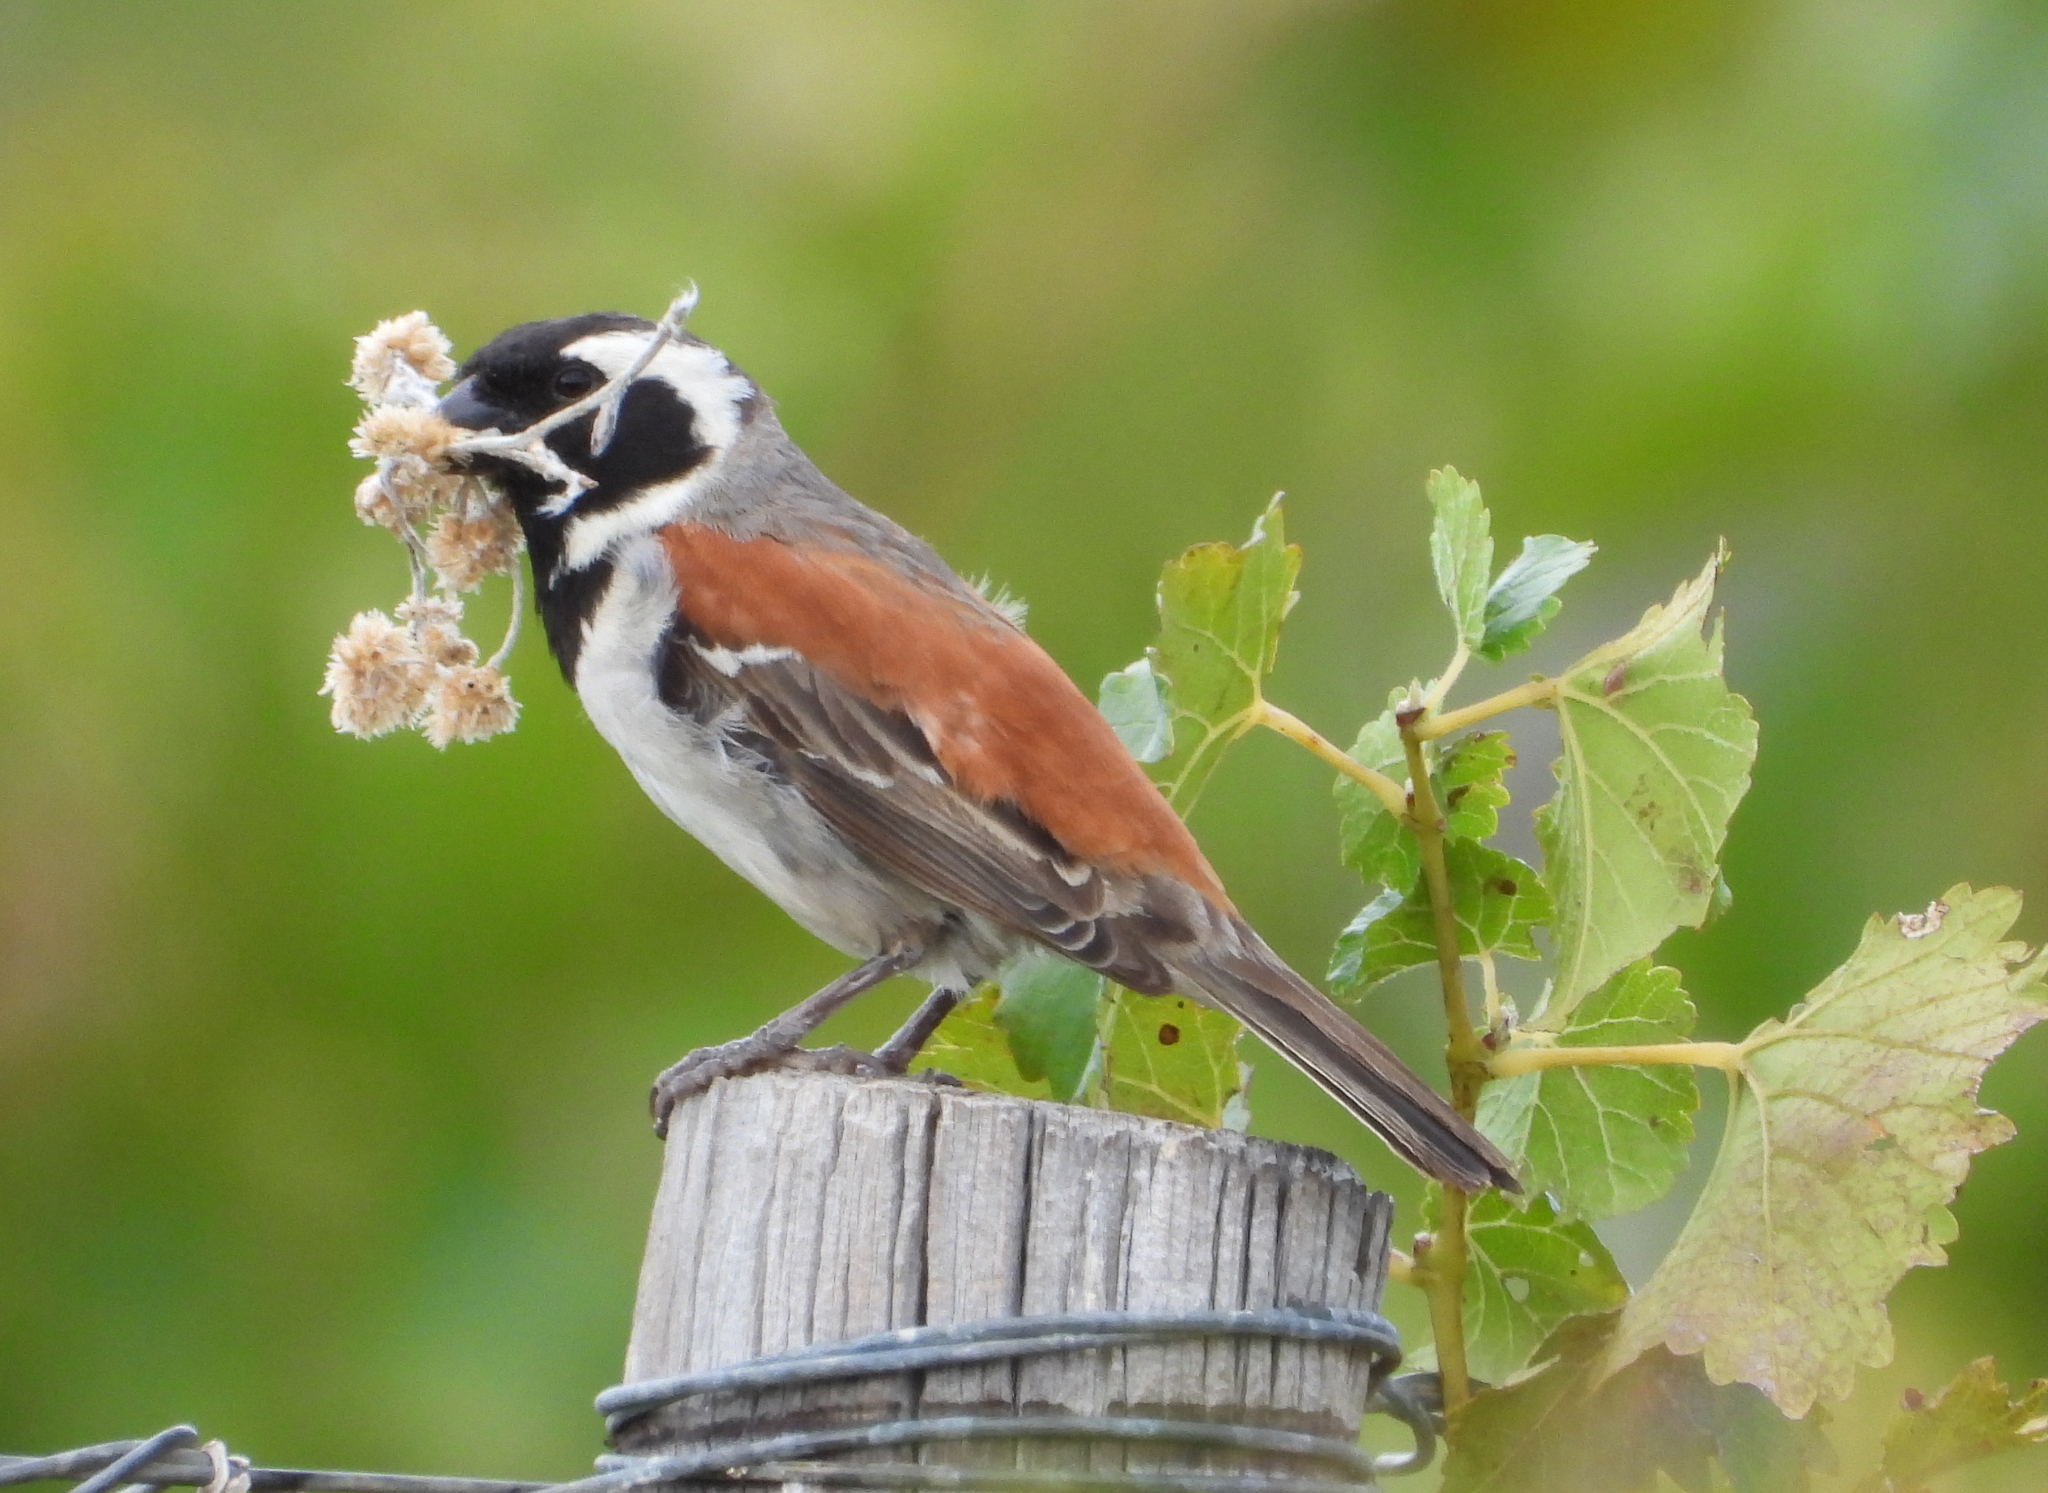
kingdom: Animalia
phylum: Chordata
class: Aves
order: Passeriformes
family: Passeridae
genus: Passer
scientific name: Passer melanurus
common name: Cape sparrow
